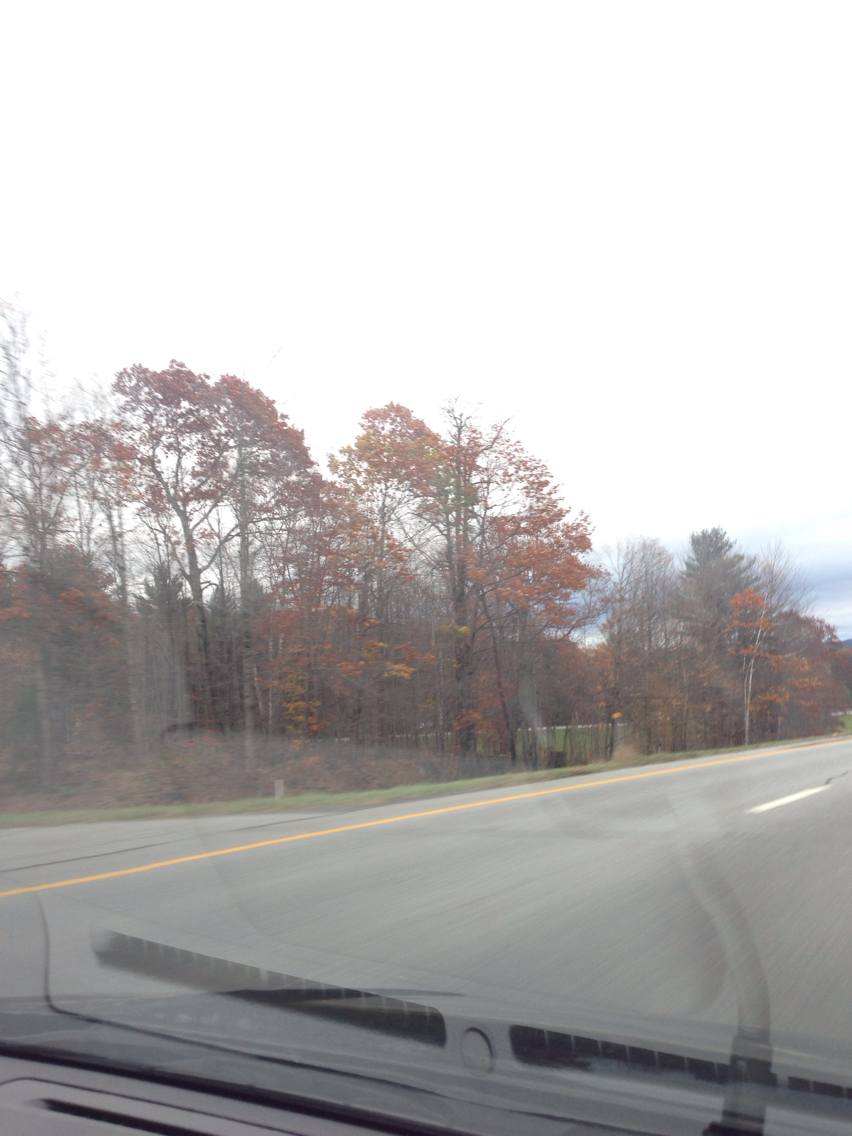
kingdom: Plantae
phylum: Tracheophyta
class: Magnoliopsida
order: Fagales
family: Fagaceae
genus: Quercus
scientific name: Quercus rubra
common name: Red oak
